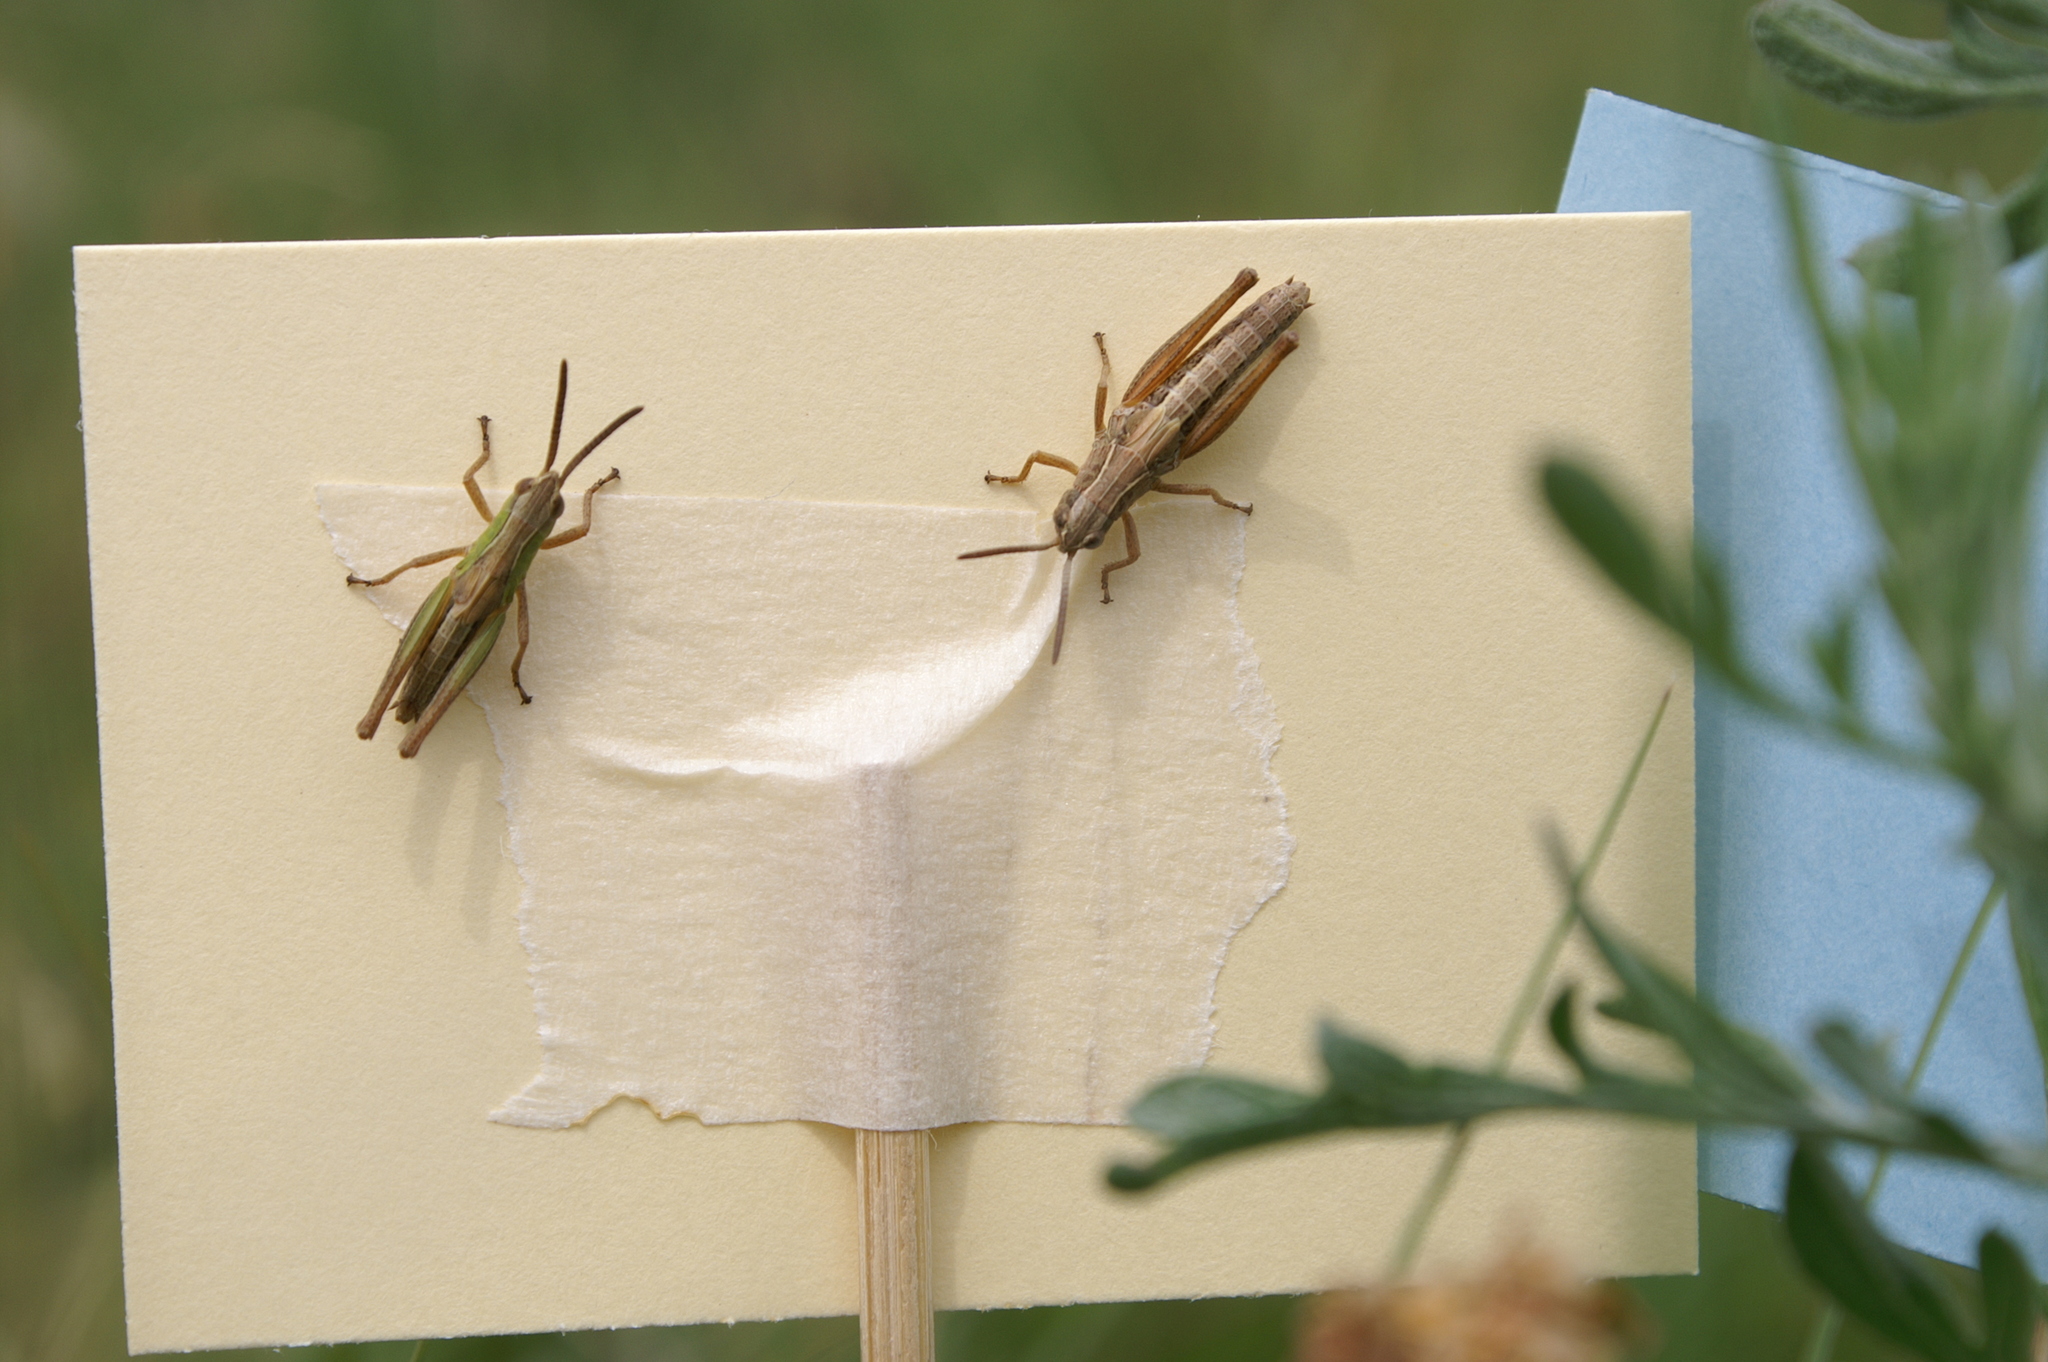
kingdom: Animalia
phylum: Arthropoda
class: Insecta
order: Orthoptera
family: Acrididae
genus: Pseudochorthippus
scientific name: Pseudochorthippus parallelus
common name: Meadow grasshopper
